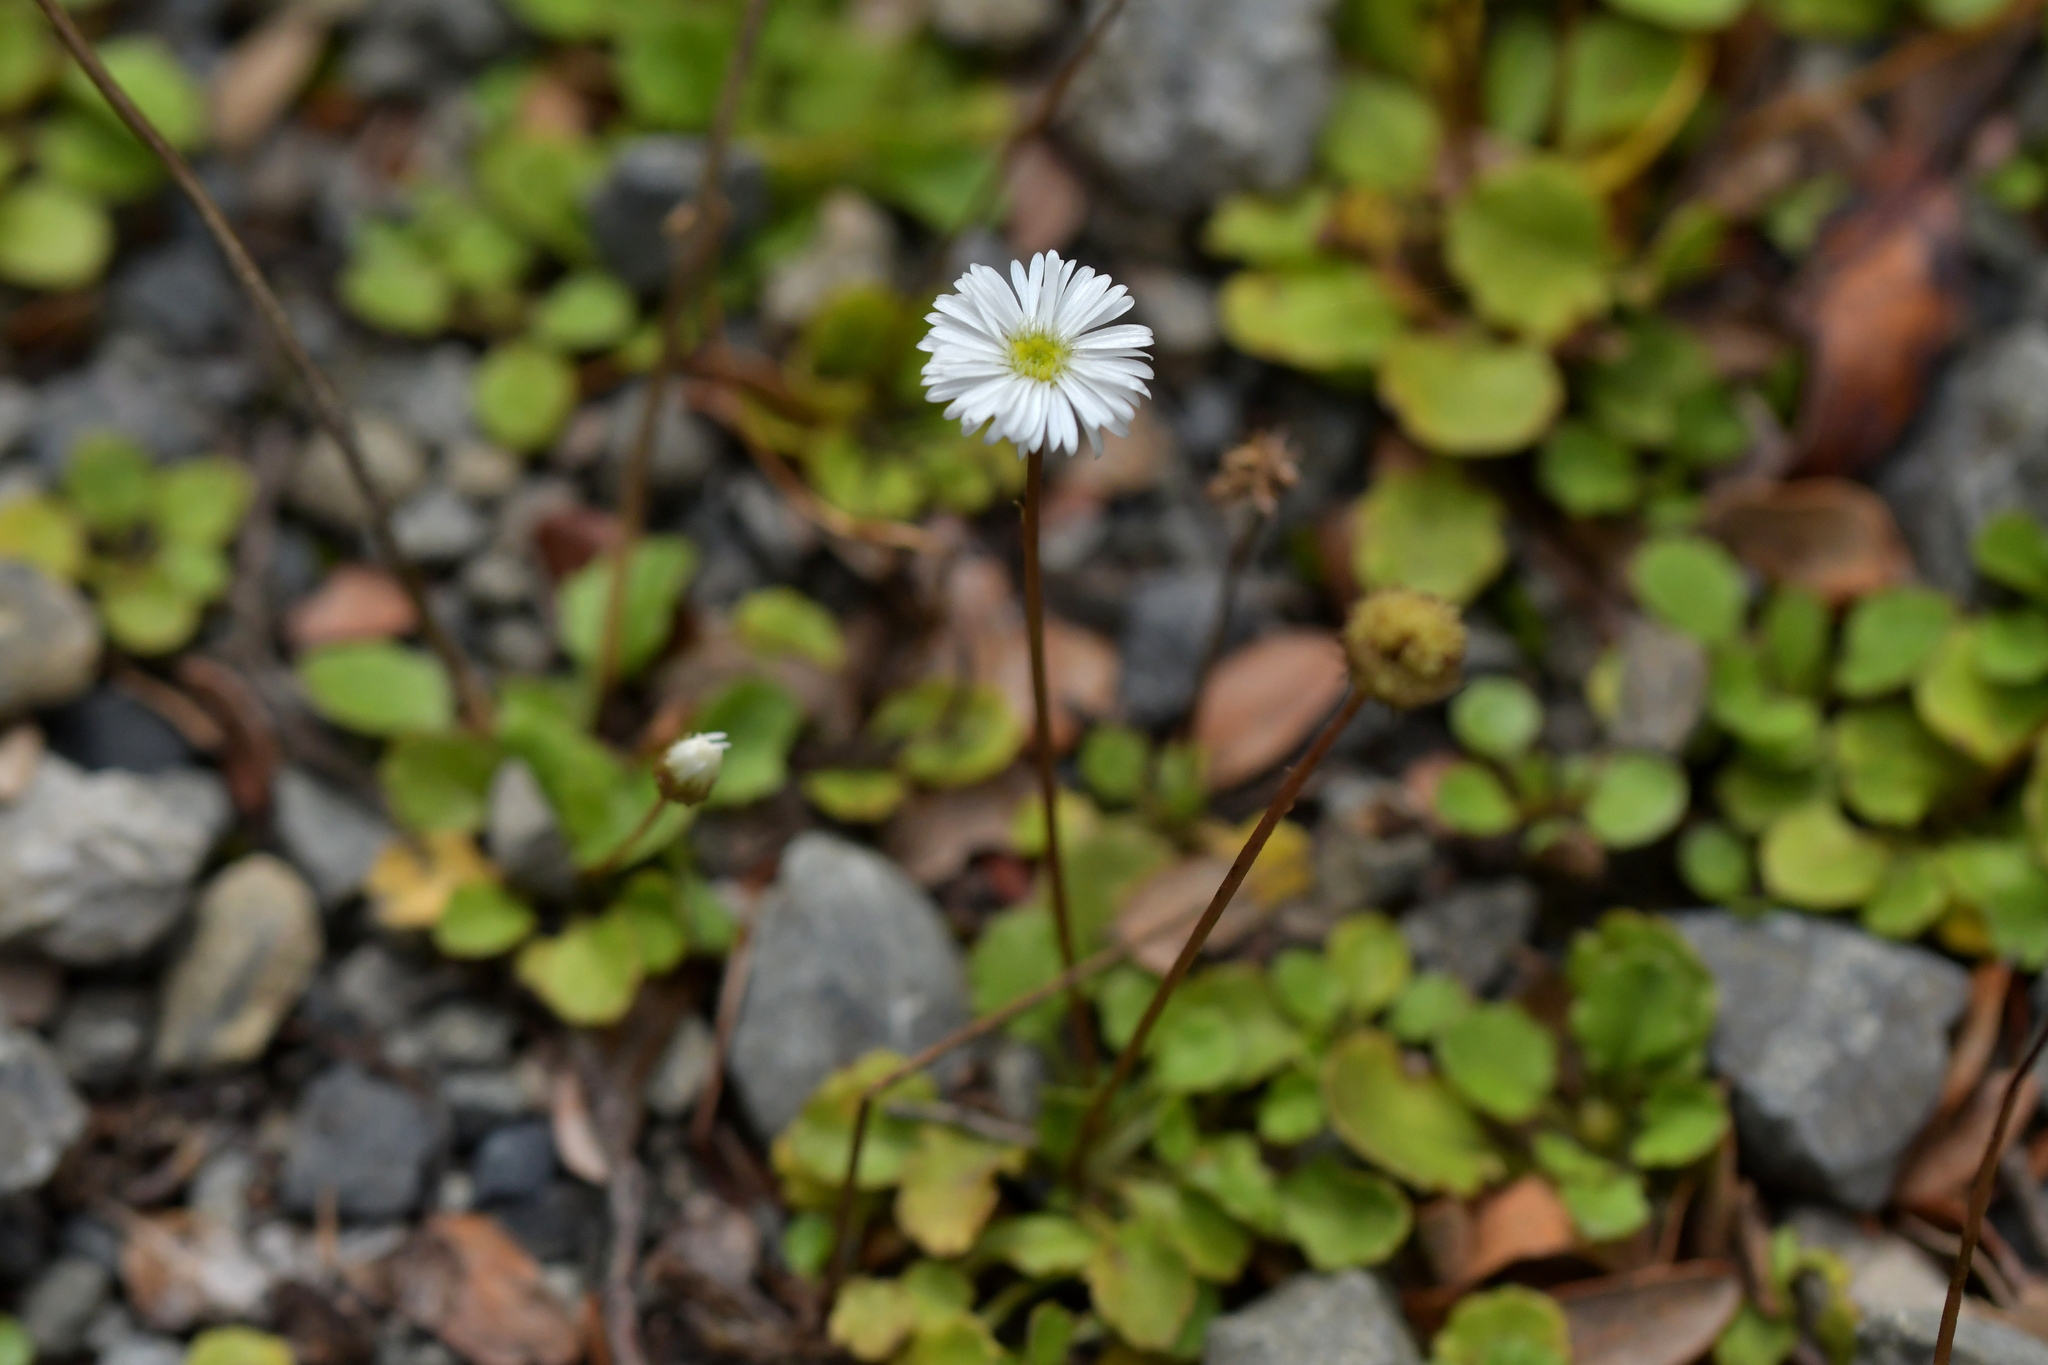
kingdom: Plantae
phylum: Tracheophyta
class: Magnoliopsida
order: Asterales
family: Asteraceae
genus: Lagenophora
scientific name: Lagenophora pumila
